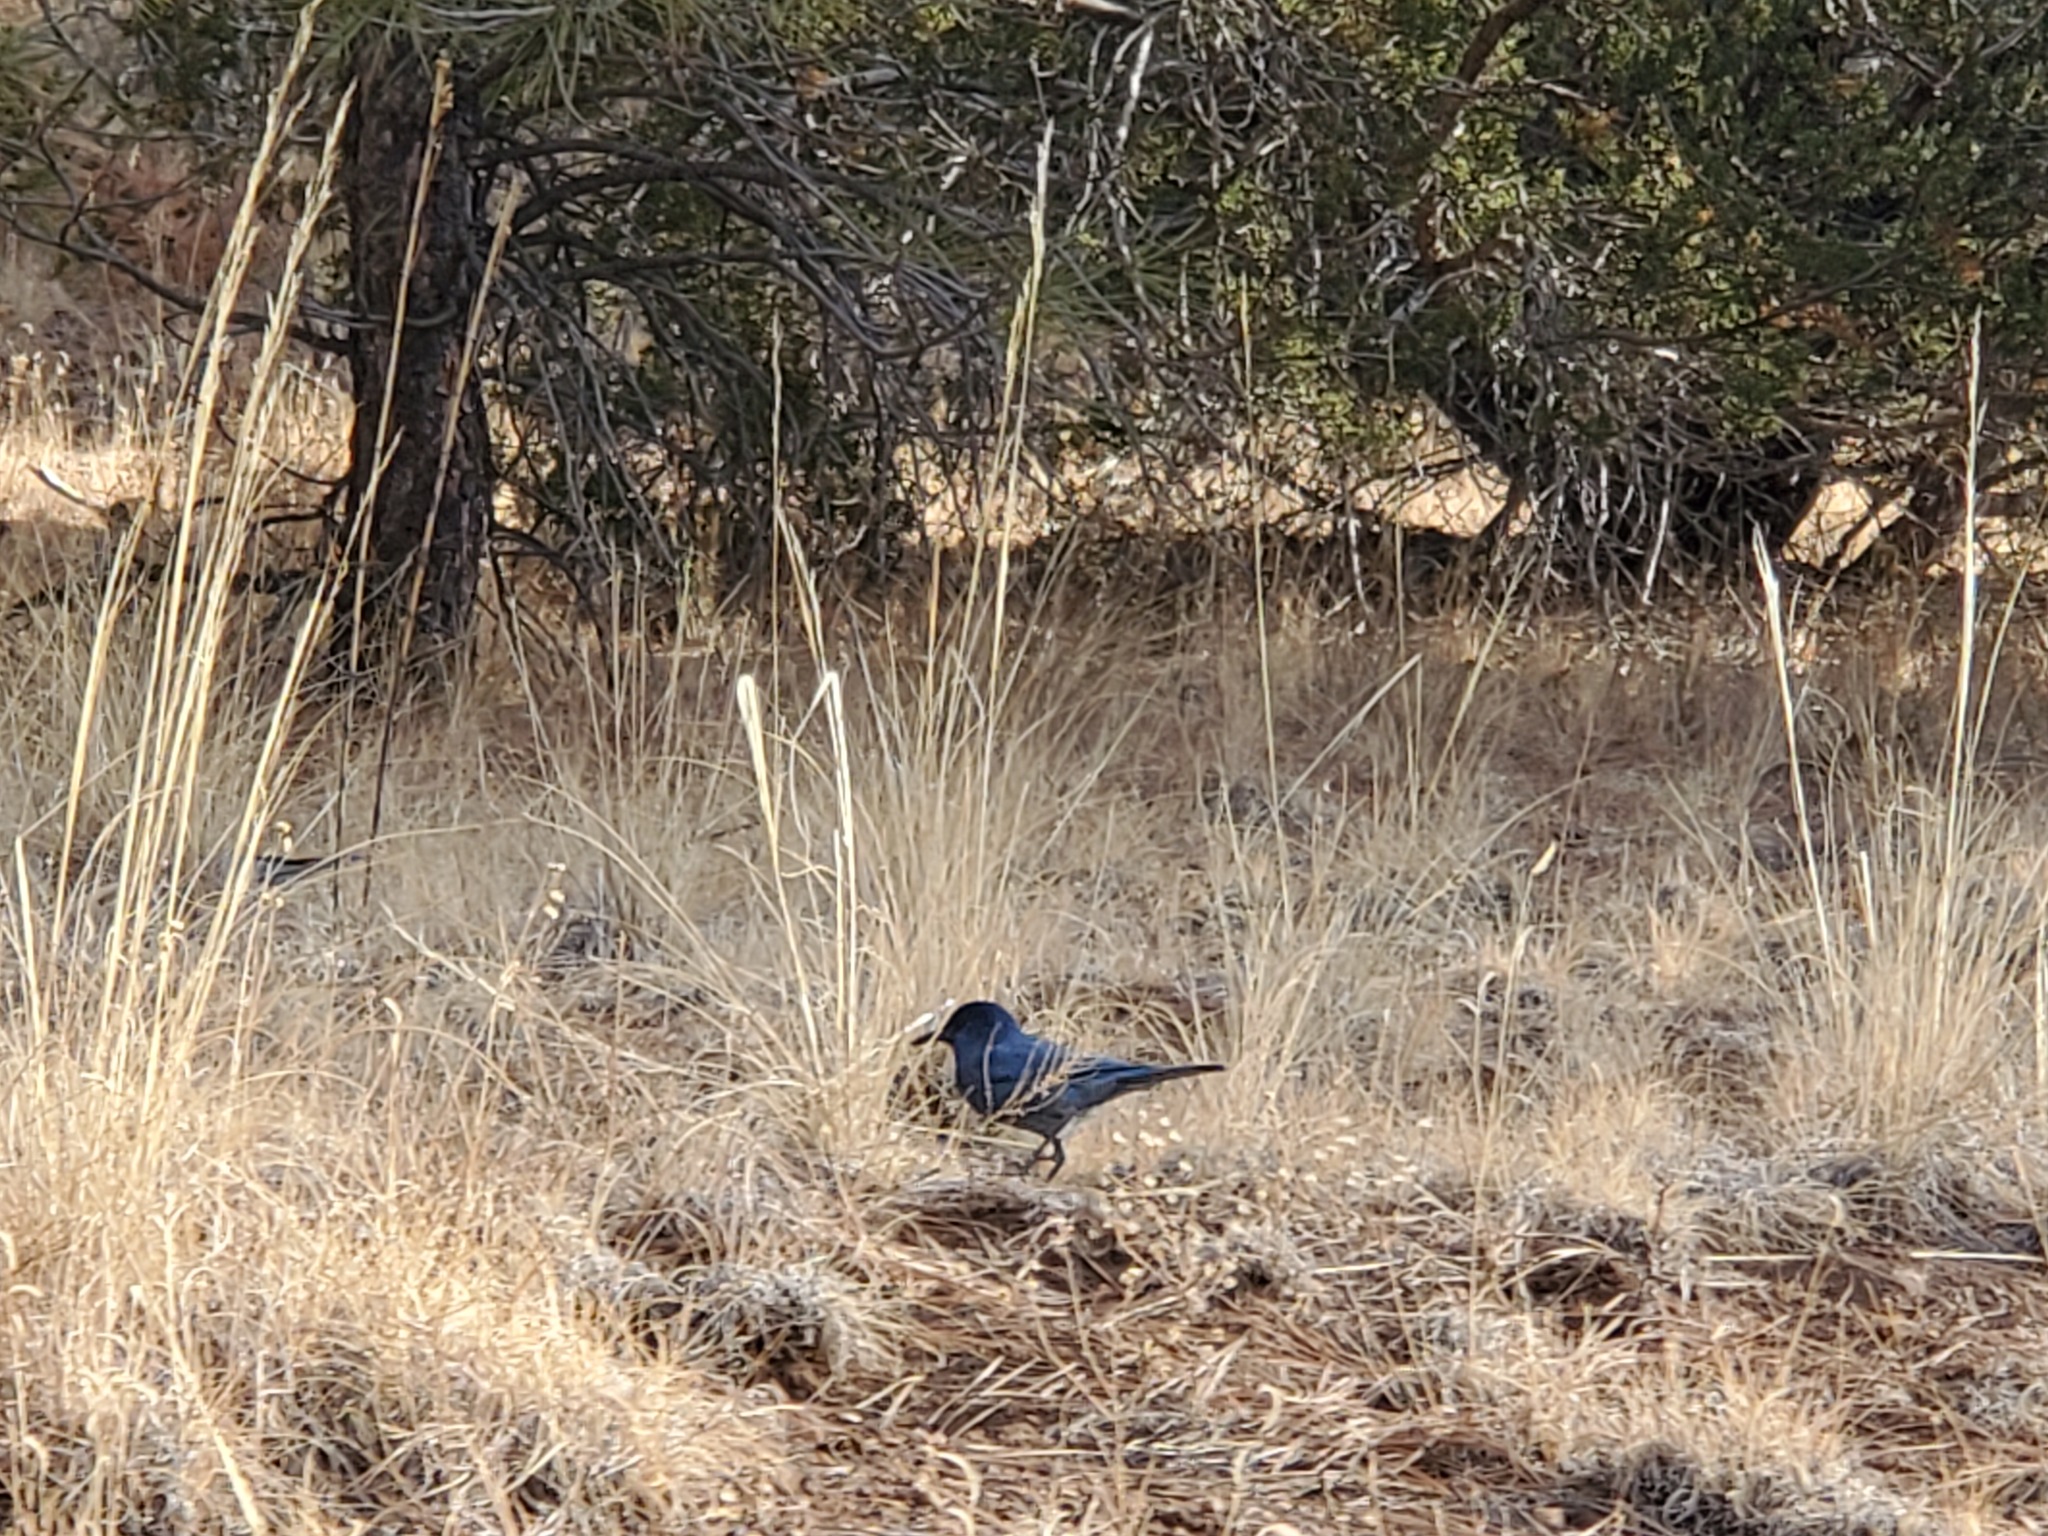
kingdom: Animalia
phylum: Chordata
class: Aves
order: Passeriformes
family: Corvidae
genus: Gymnorhinus
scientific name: Gymnorhinus cyanocephalus
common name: Pinyon jay
